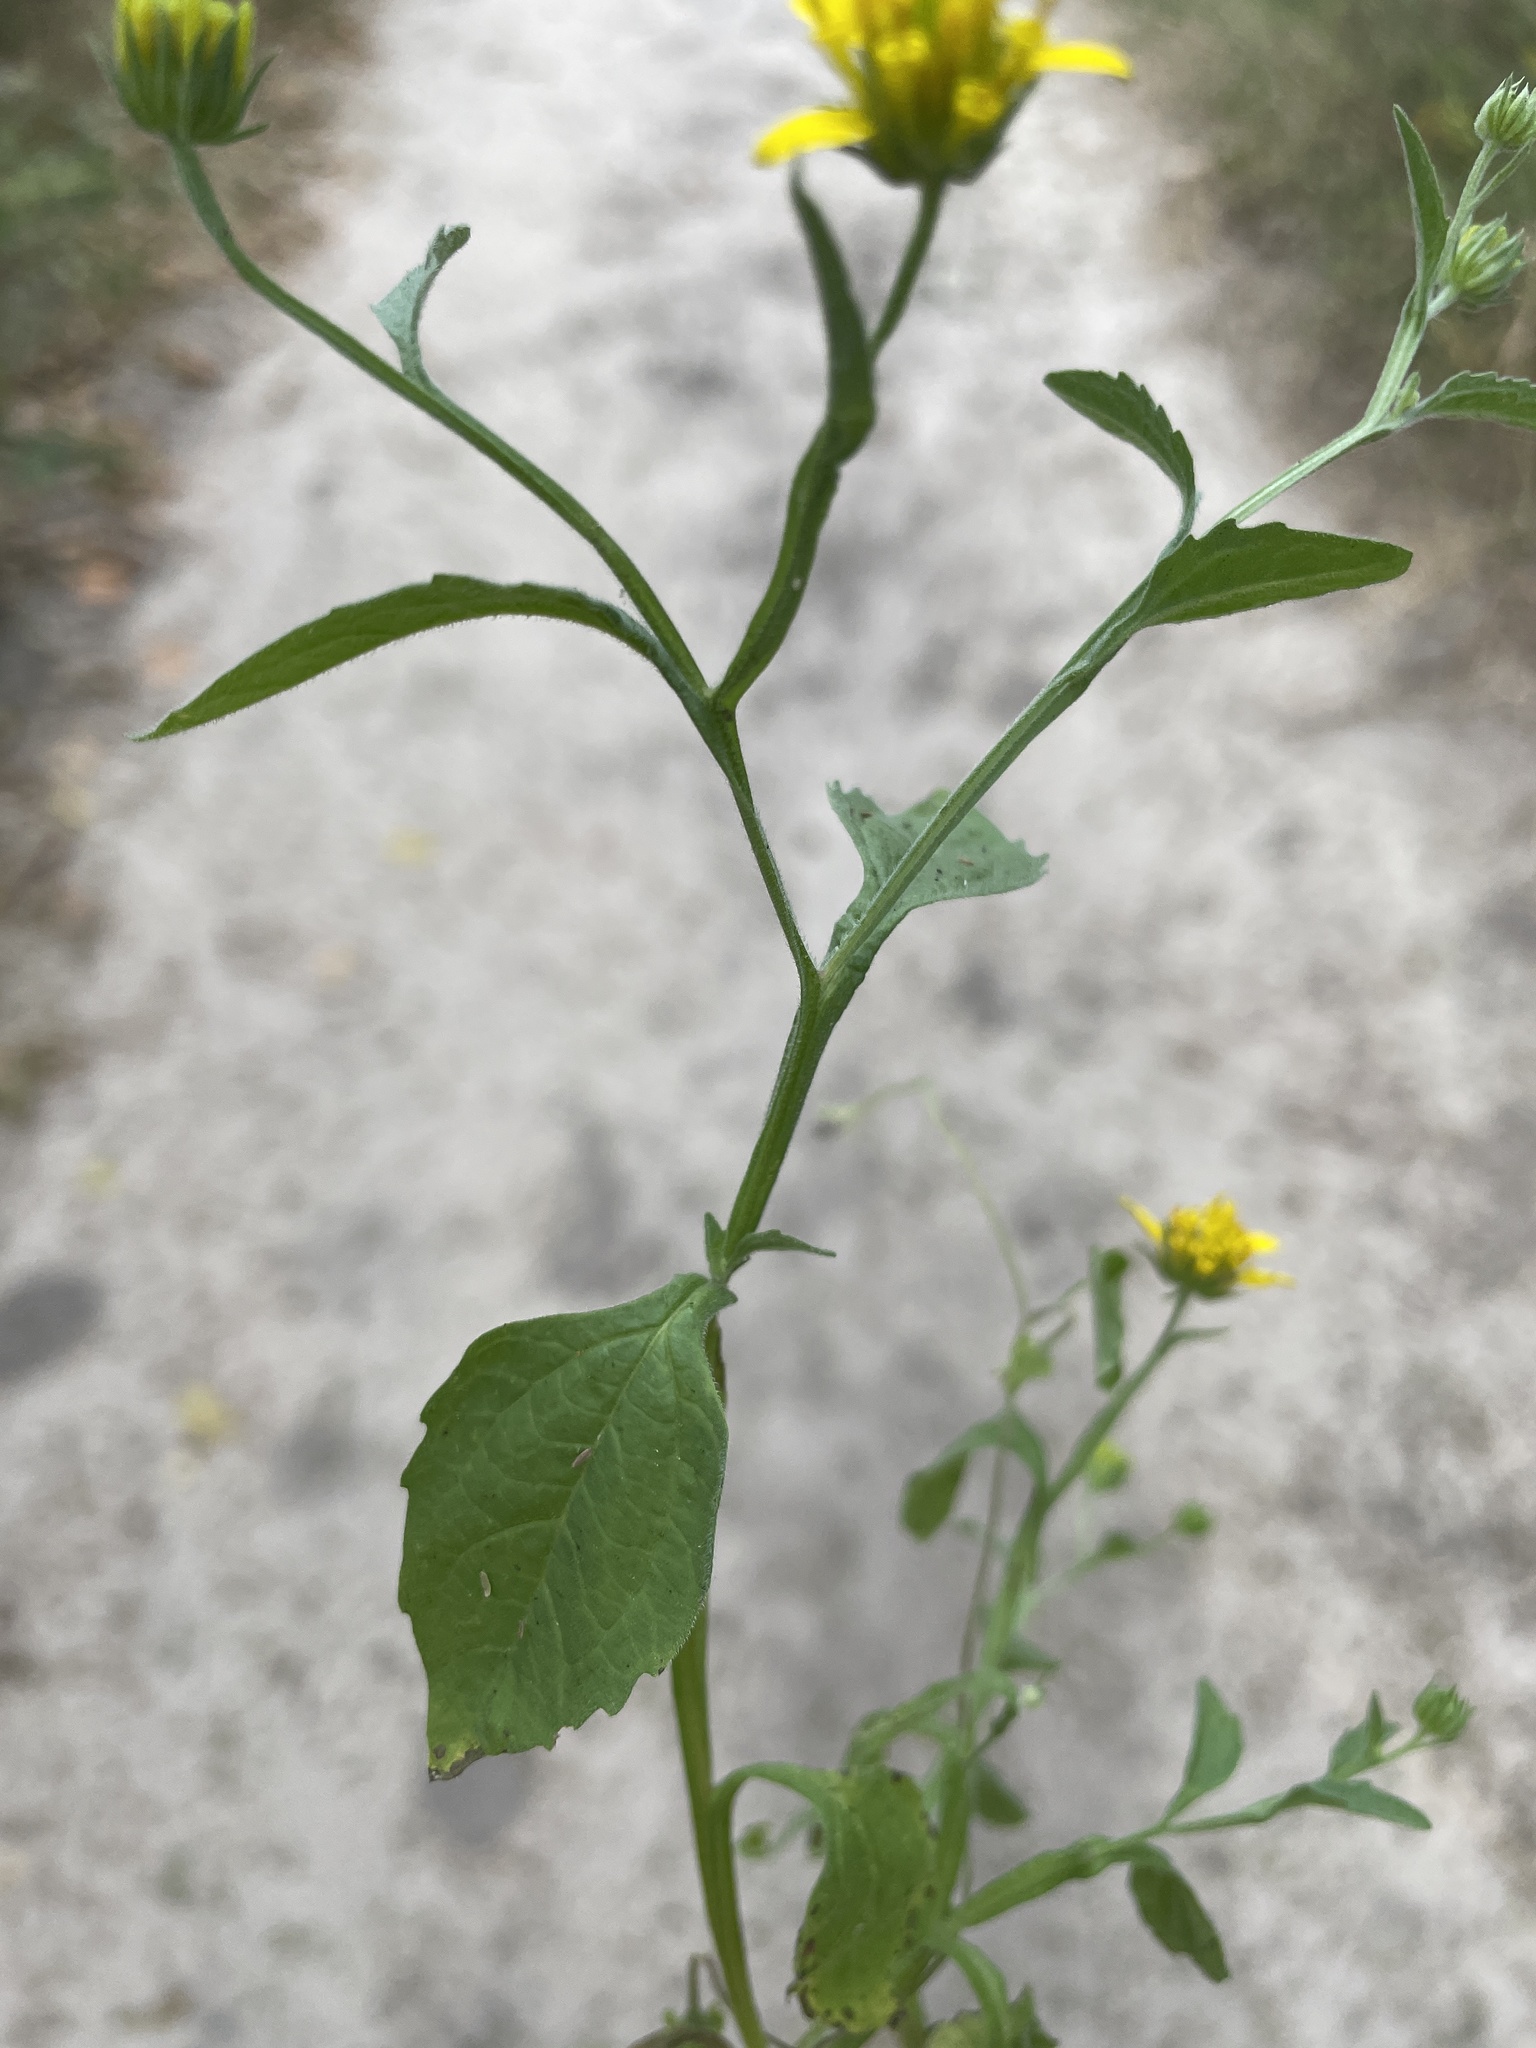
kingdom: Plantae
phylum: Tracheophyta
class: Magnoliopsida
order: Asterales
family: Asteraceae
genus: Calostephane
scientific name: Calostephane divaricata
